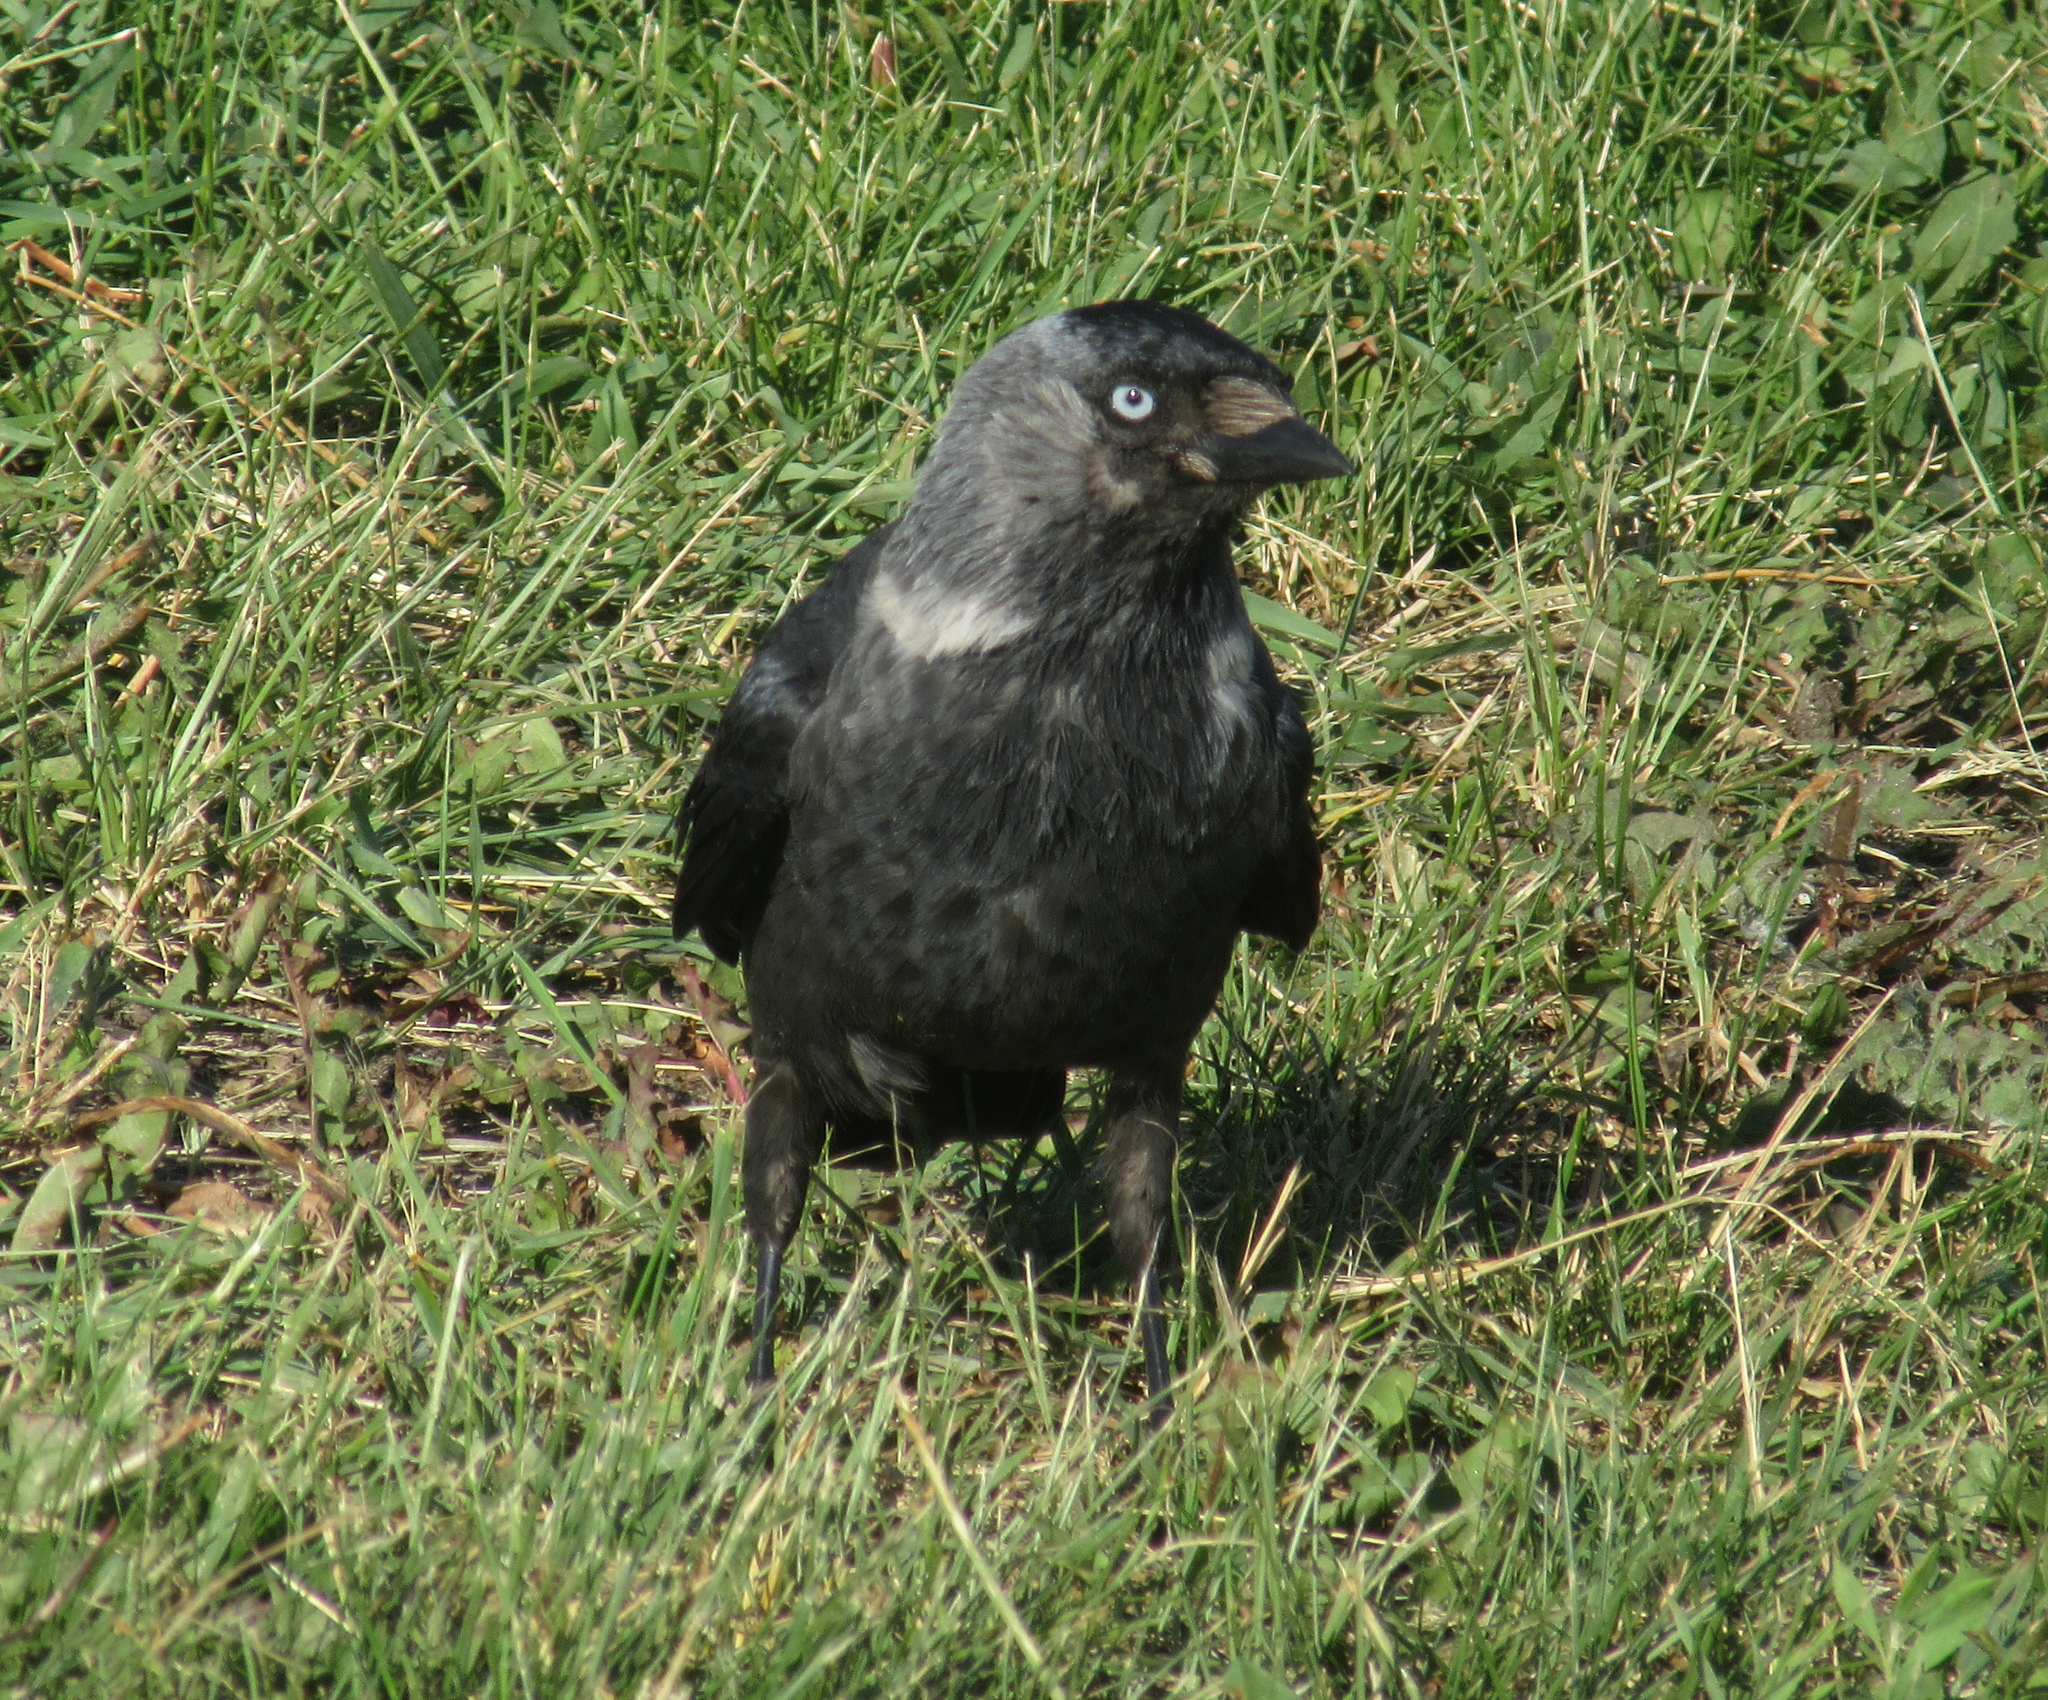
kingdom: Animalia
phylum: Chordata
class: Aves
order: Passeriformes
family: Corvidae
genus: Coloeus
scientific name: Coloeus monedula
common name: Western jackdaw
